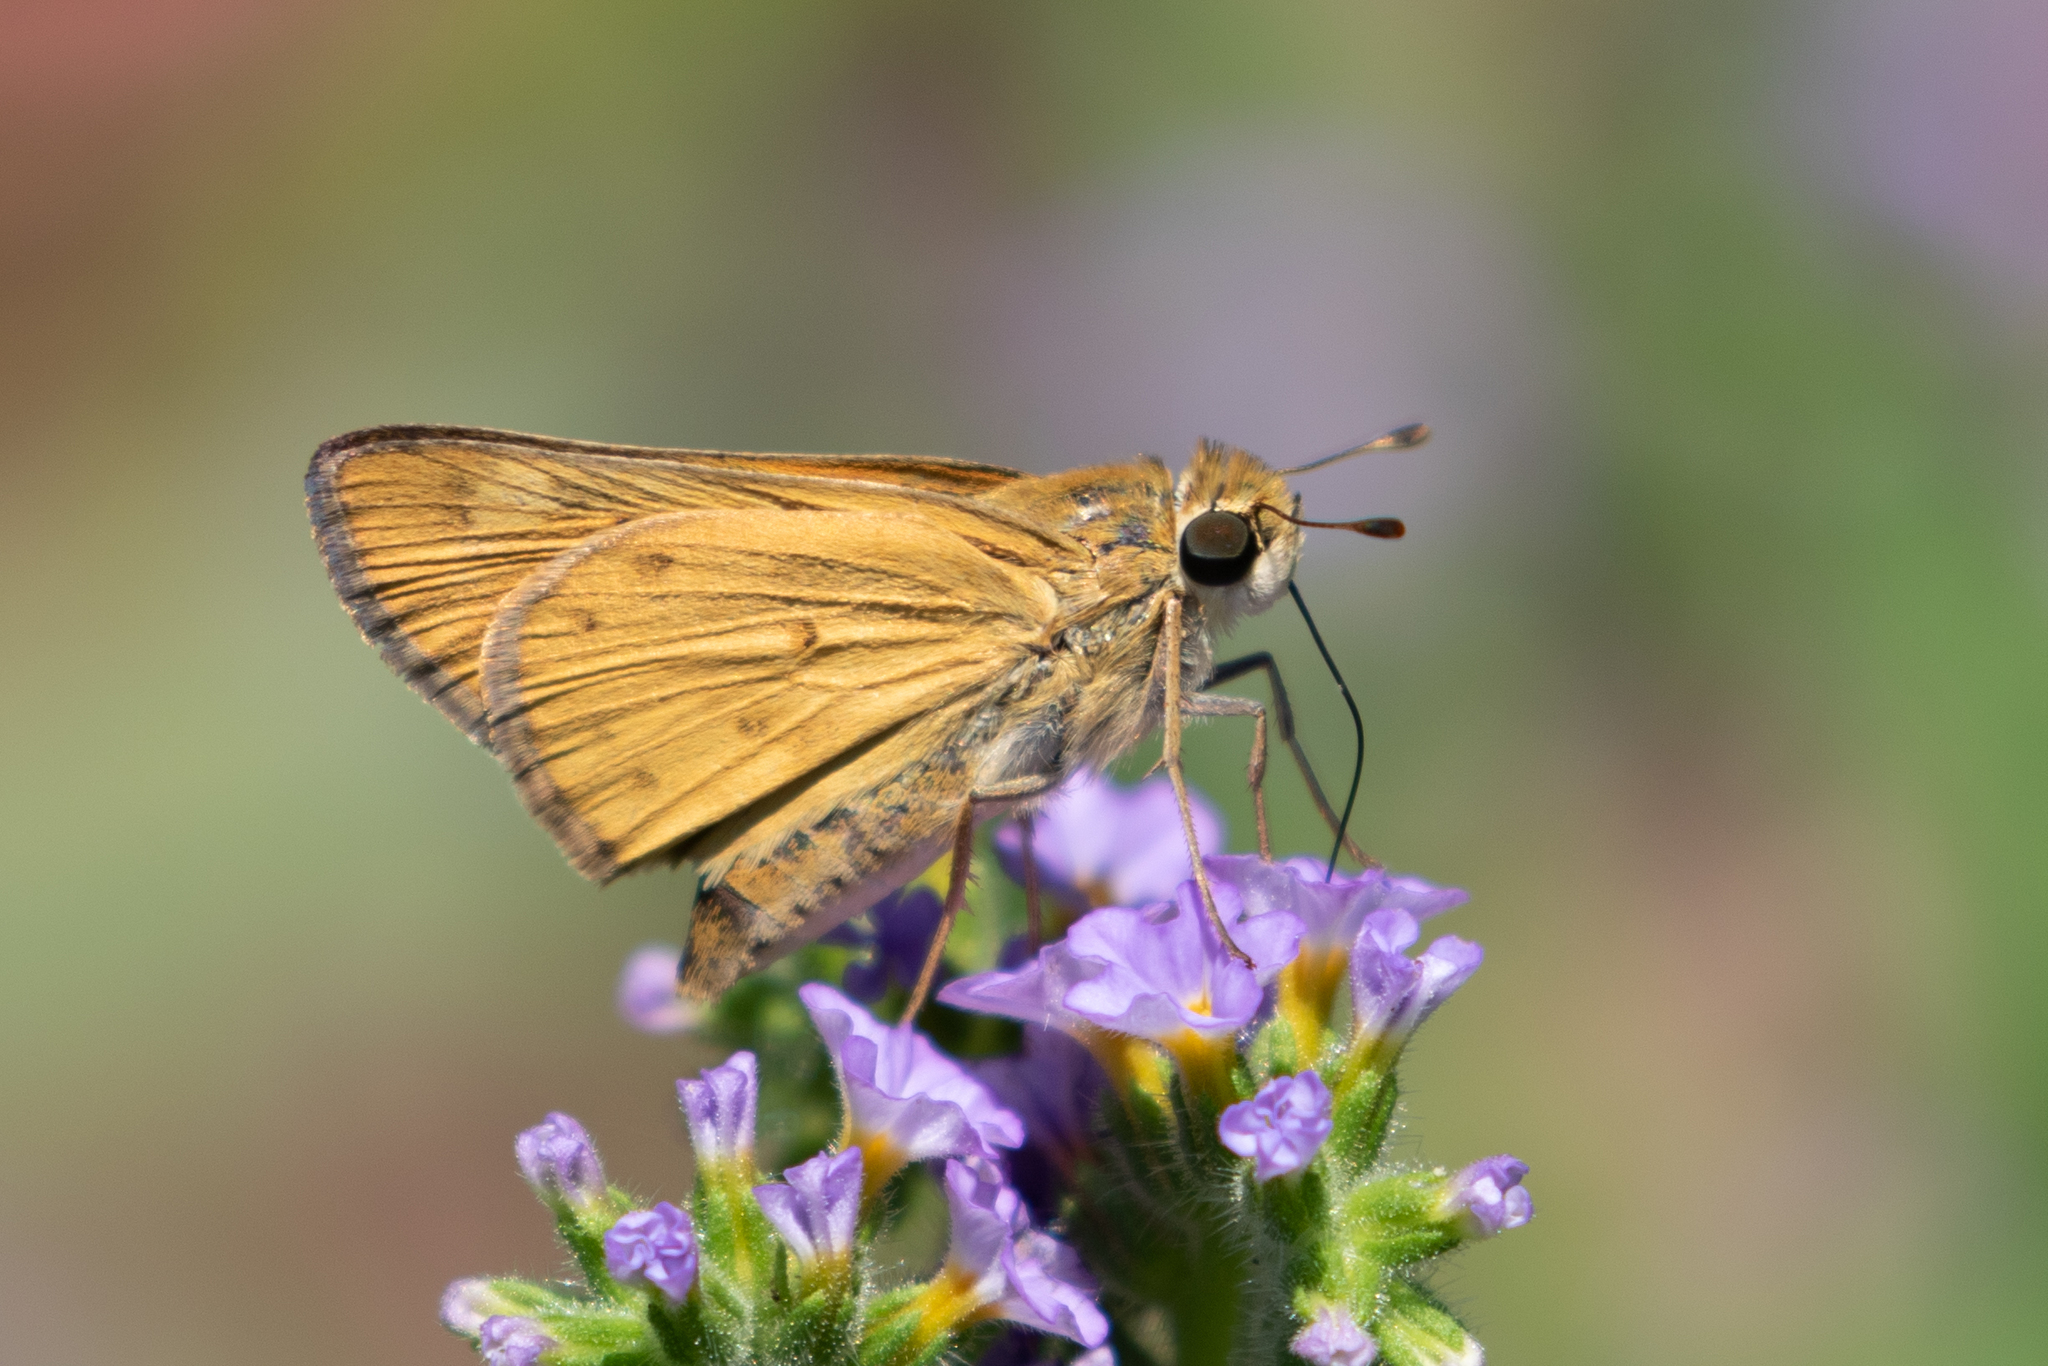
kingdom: Animalia
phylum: Arthropoda
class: Insecta
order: Lepidoptera
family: Hesperiidae
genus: Hylephila
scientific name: Hylephila phyleus
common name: Fiery skipper
